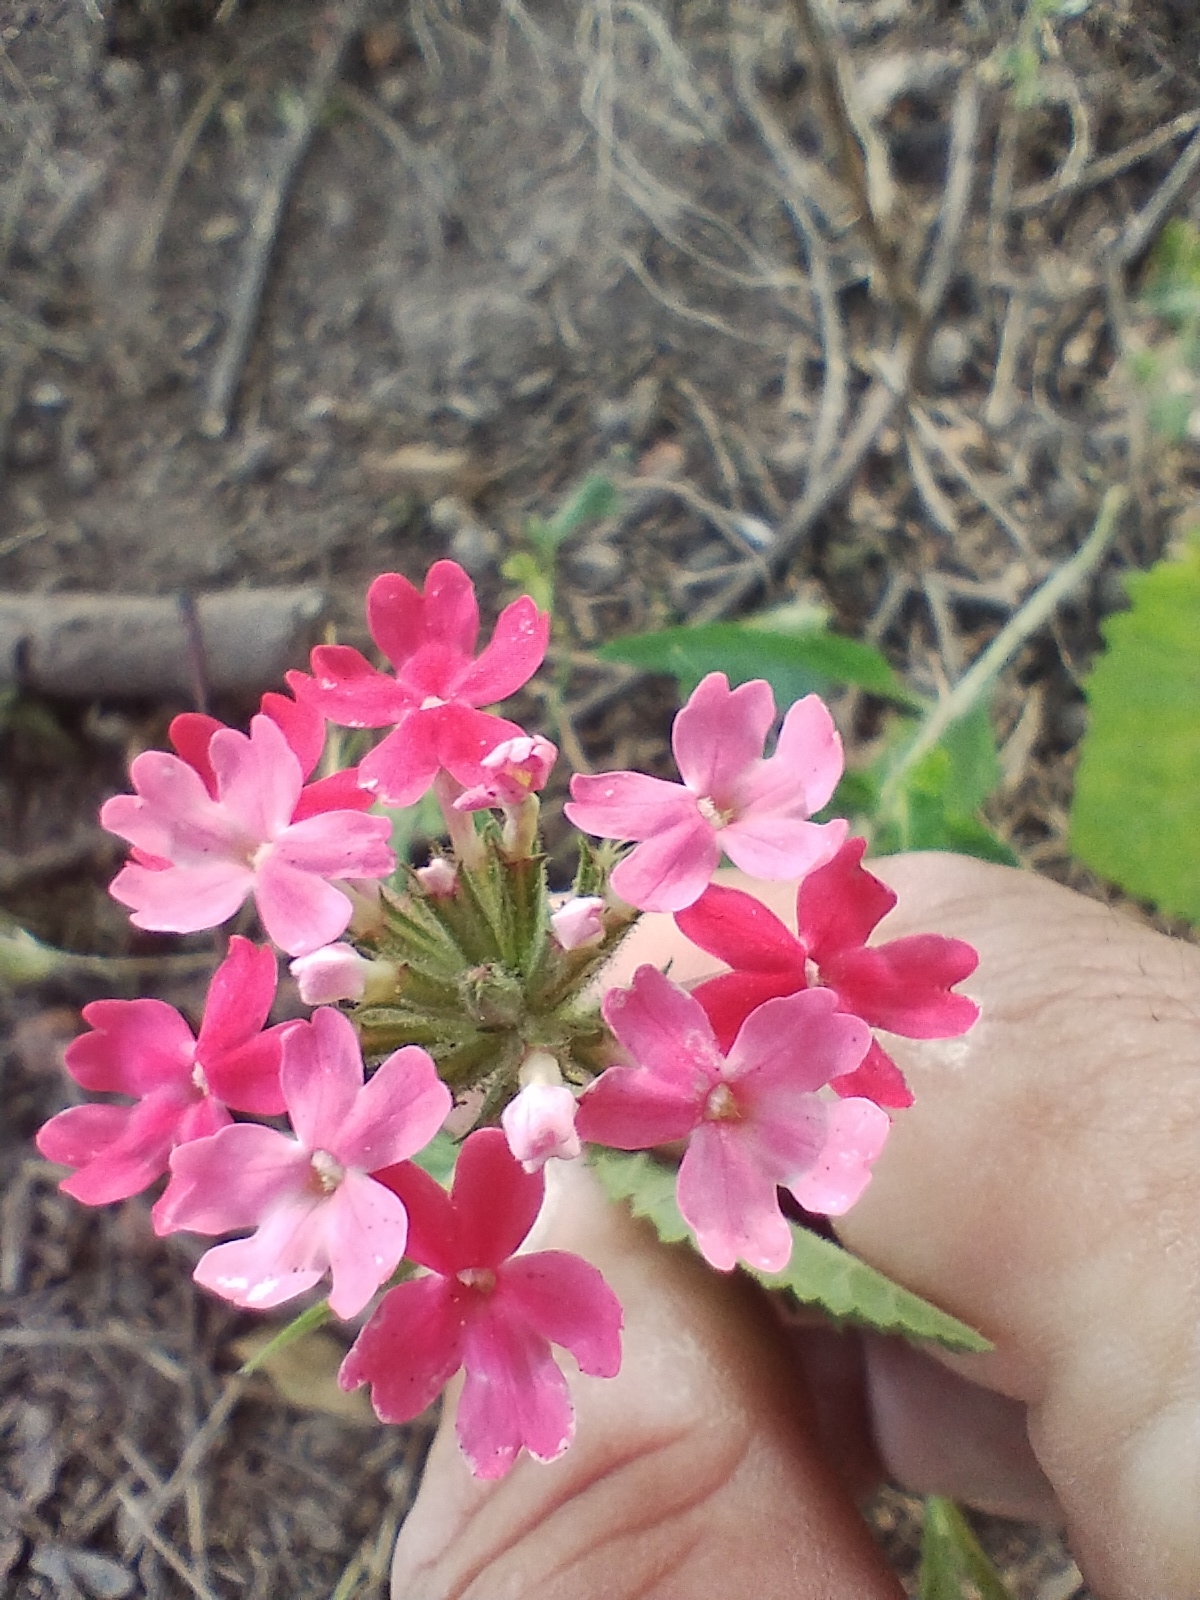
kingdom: Plantae
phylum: Tracheophyta
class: Magnoliopsida
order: Lamiales
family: Verbenaceae
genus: Verbena
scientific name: Verbena tweedieana
